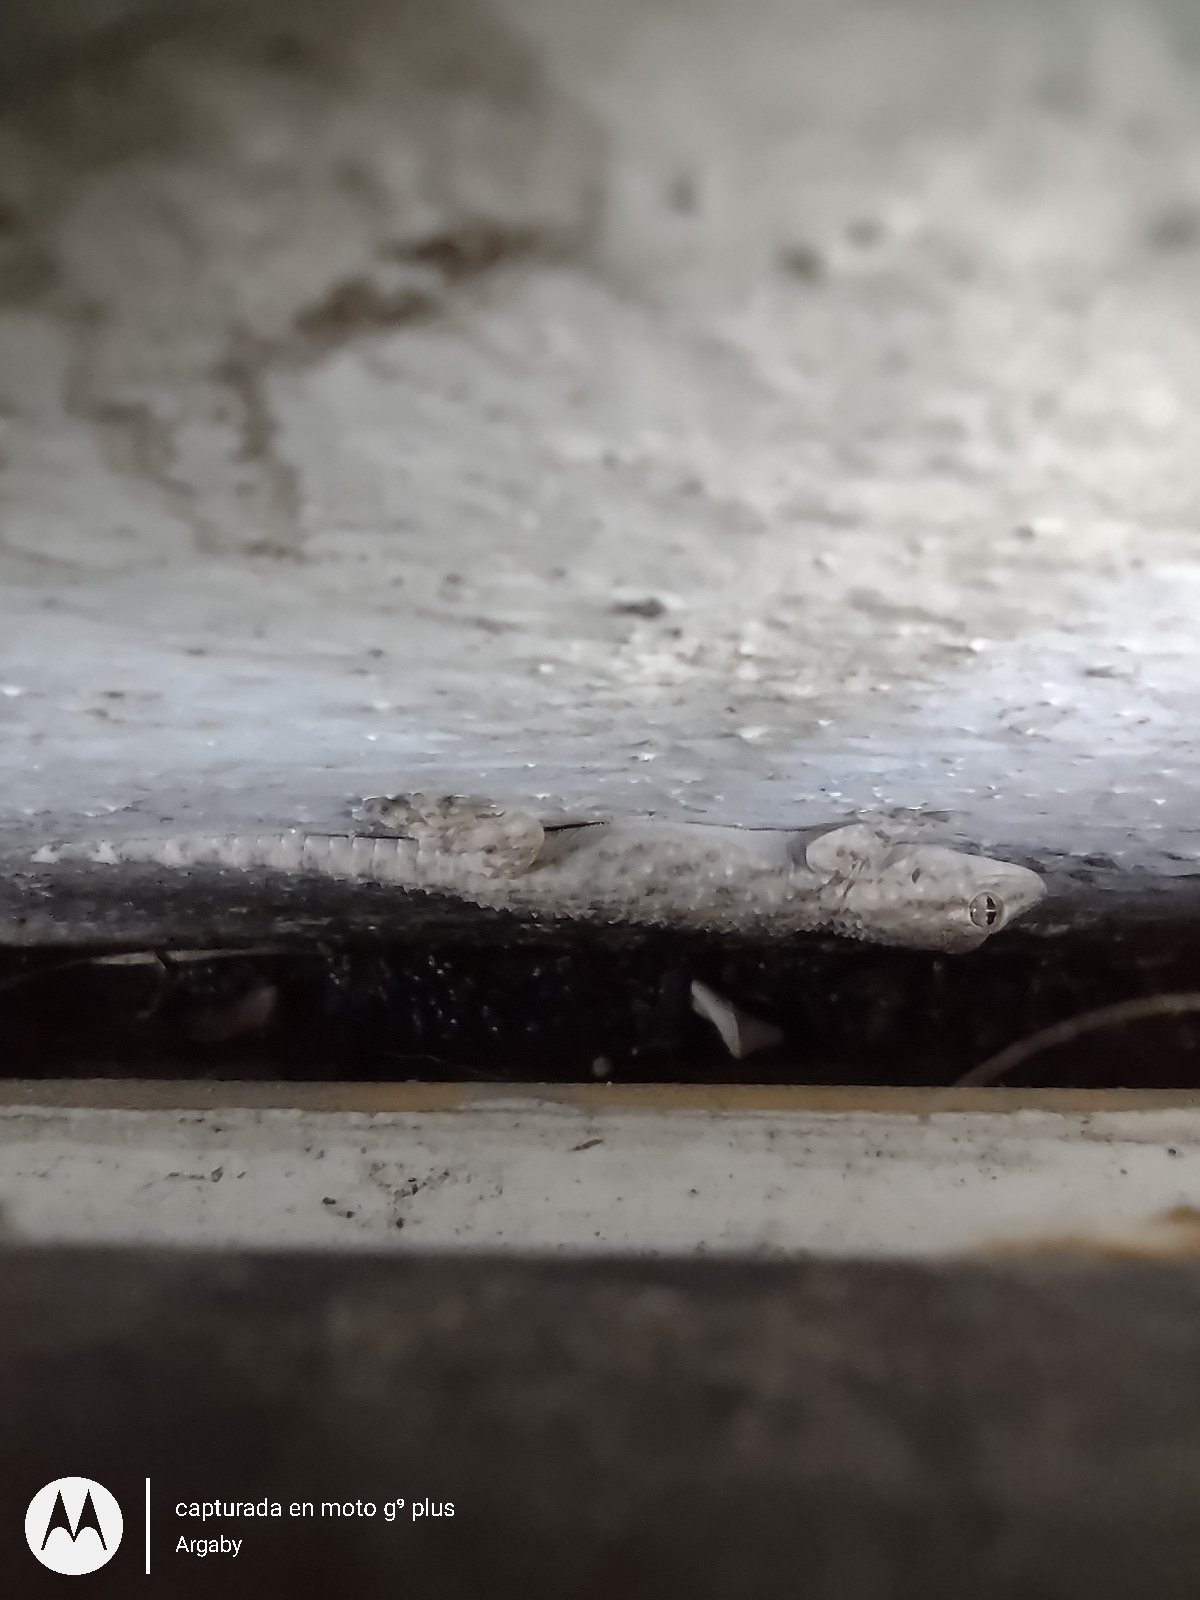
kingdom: Animalia
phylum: Chordata
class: Squamata
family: Phyllodactylidae
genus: Tarentola
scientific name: Tarentola mauritanica
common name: Moorish gecko
